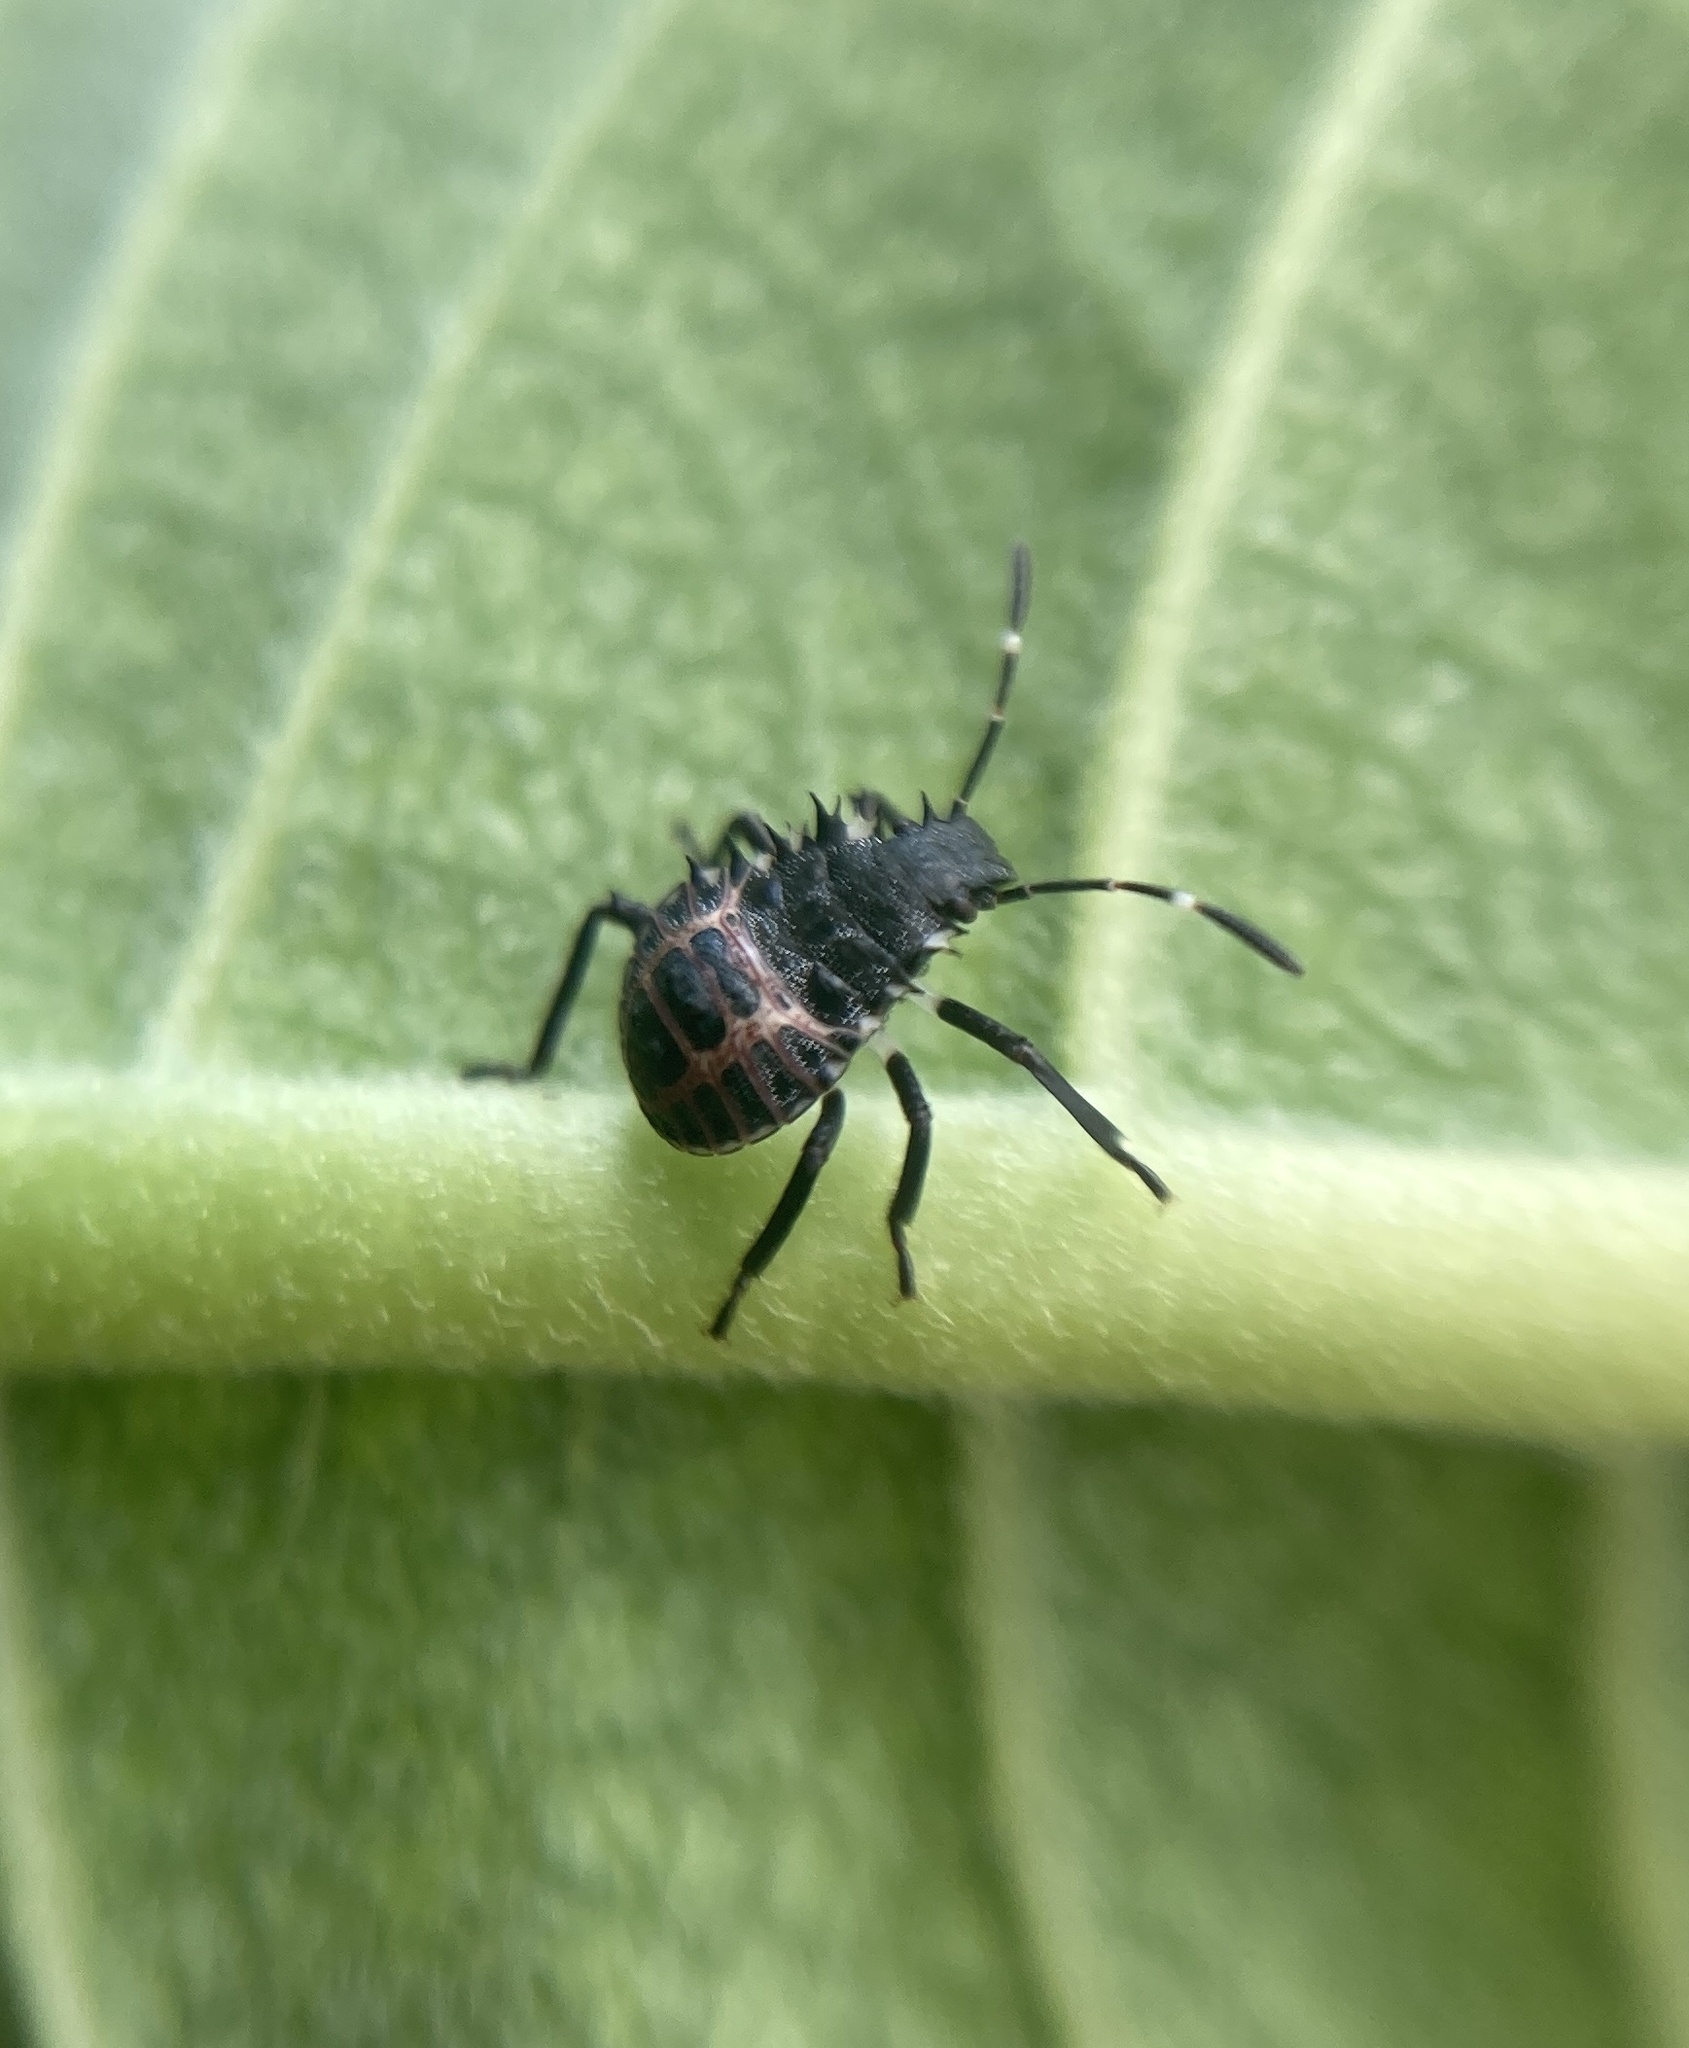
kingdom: Animalia
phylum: Arthropoda
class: Insecta
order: Hemiptera
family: Pentatomidae
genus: Halyomorpha
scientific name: Halyomorpha halys
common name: Brown marmorated stink bug
